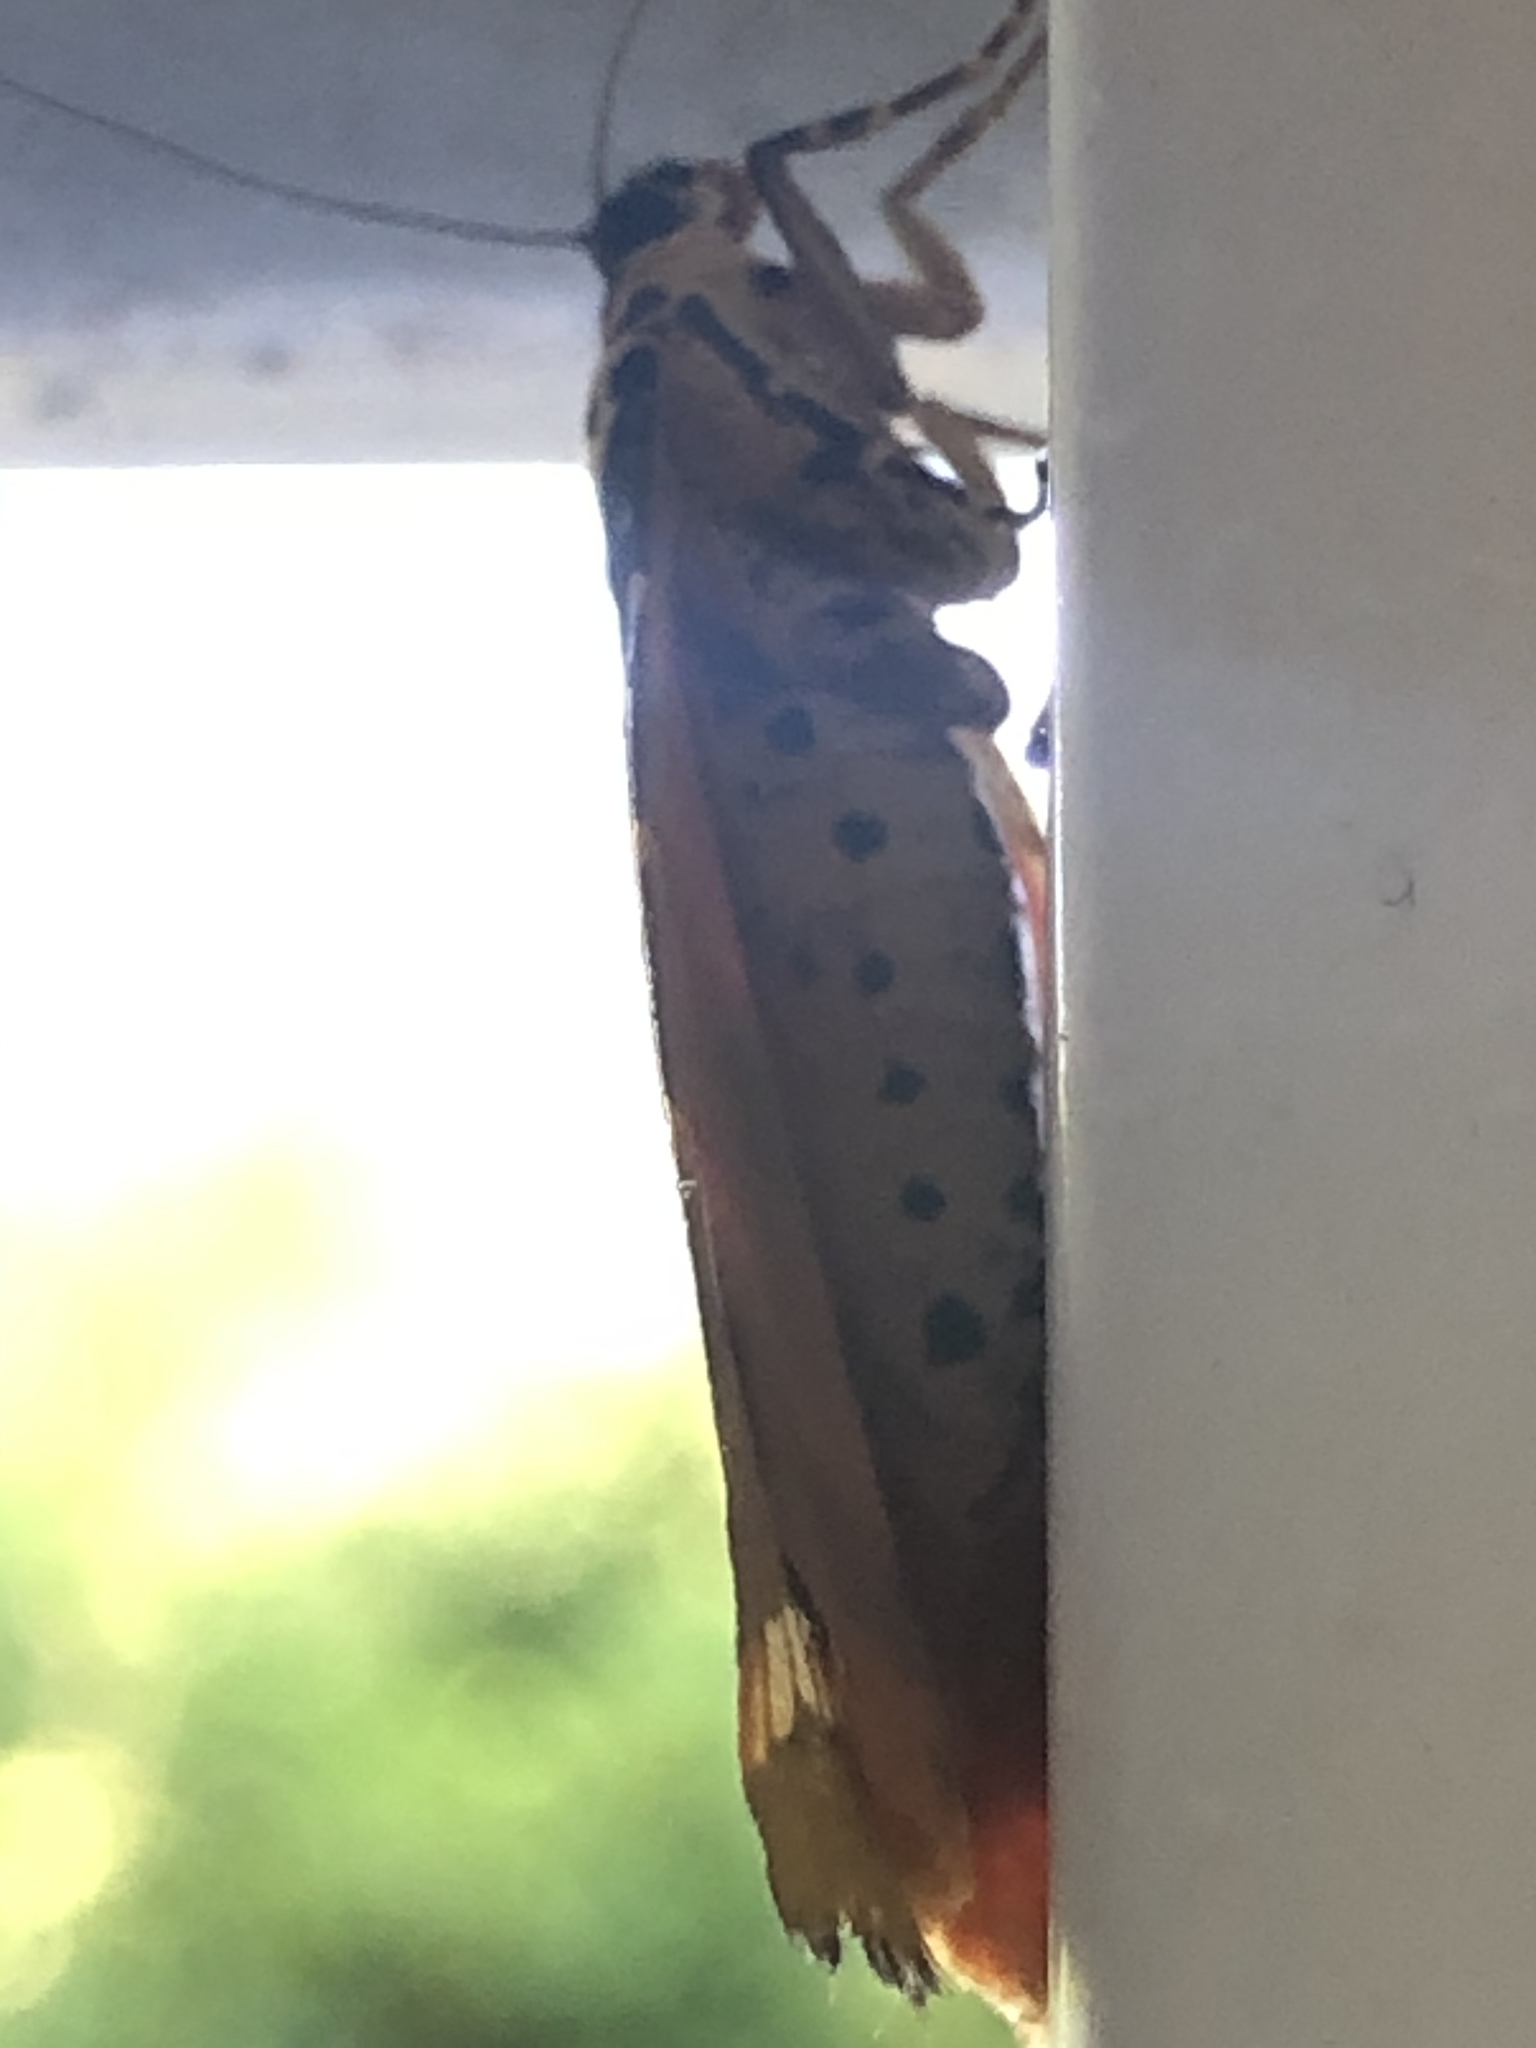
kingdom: Animalia
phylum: Arthropoda
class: Insecta
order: Lepidoptera
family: Erebidae
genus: Euplagia
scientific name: Euplagia quadripunctaria
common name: Jersey tiger
